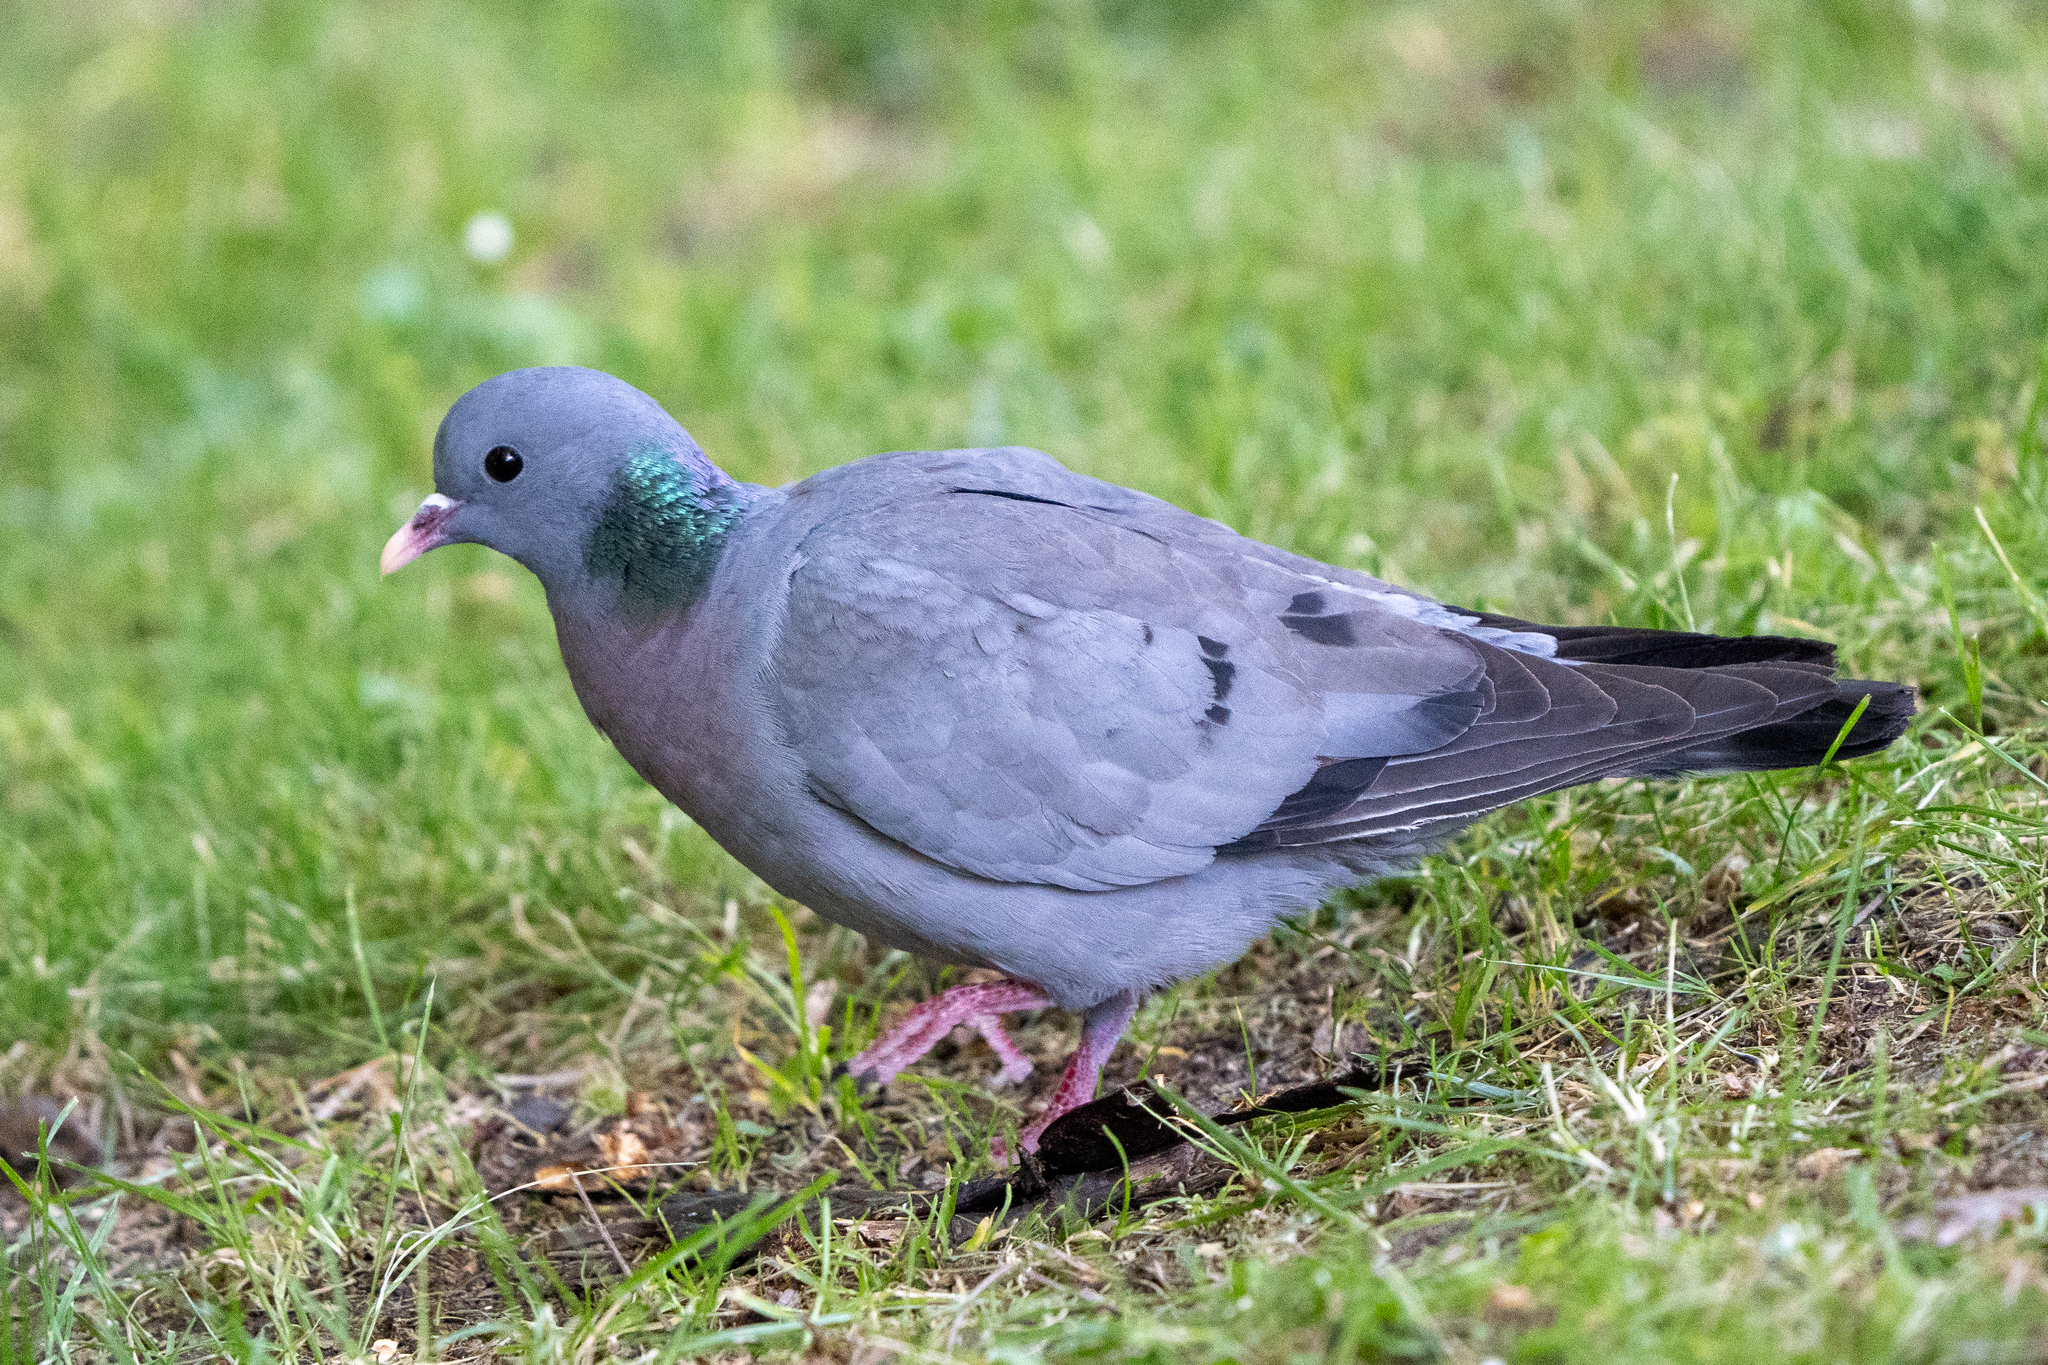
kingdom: Animalia
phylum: Chordata
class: Aves
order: Columbiformes
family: Columbidae
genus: Columba
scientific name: Columba oenas
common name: Stock dove
